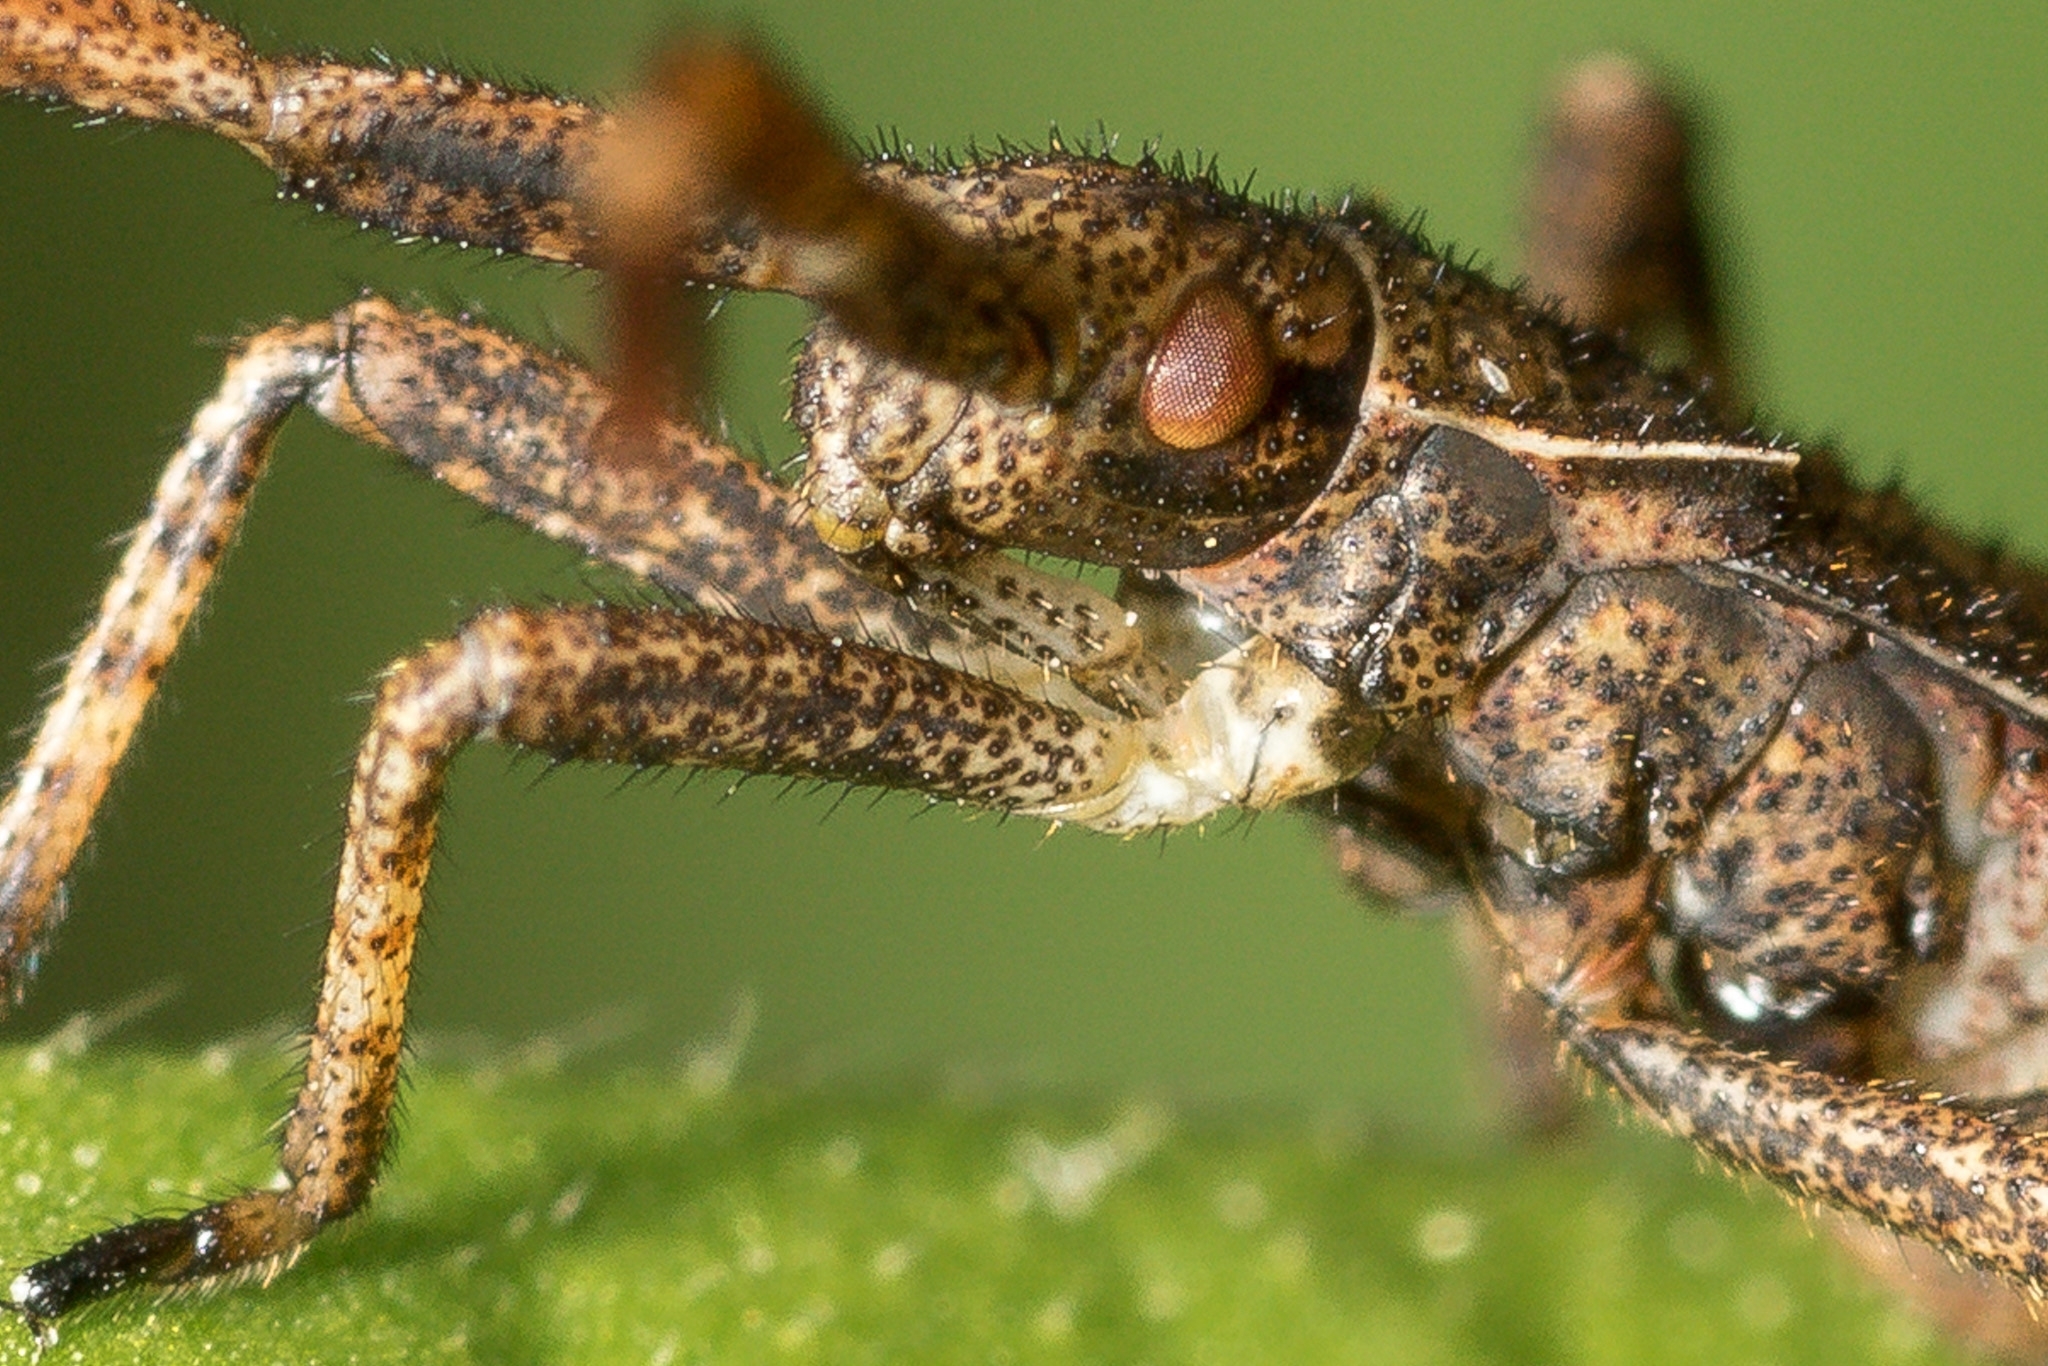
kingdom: Animalia
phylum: Arthropoda
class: Insecta
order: Hemiptera
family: Coreidae
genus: Coreus
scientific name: Coreus marginatus
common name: Dock bug
